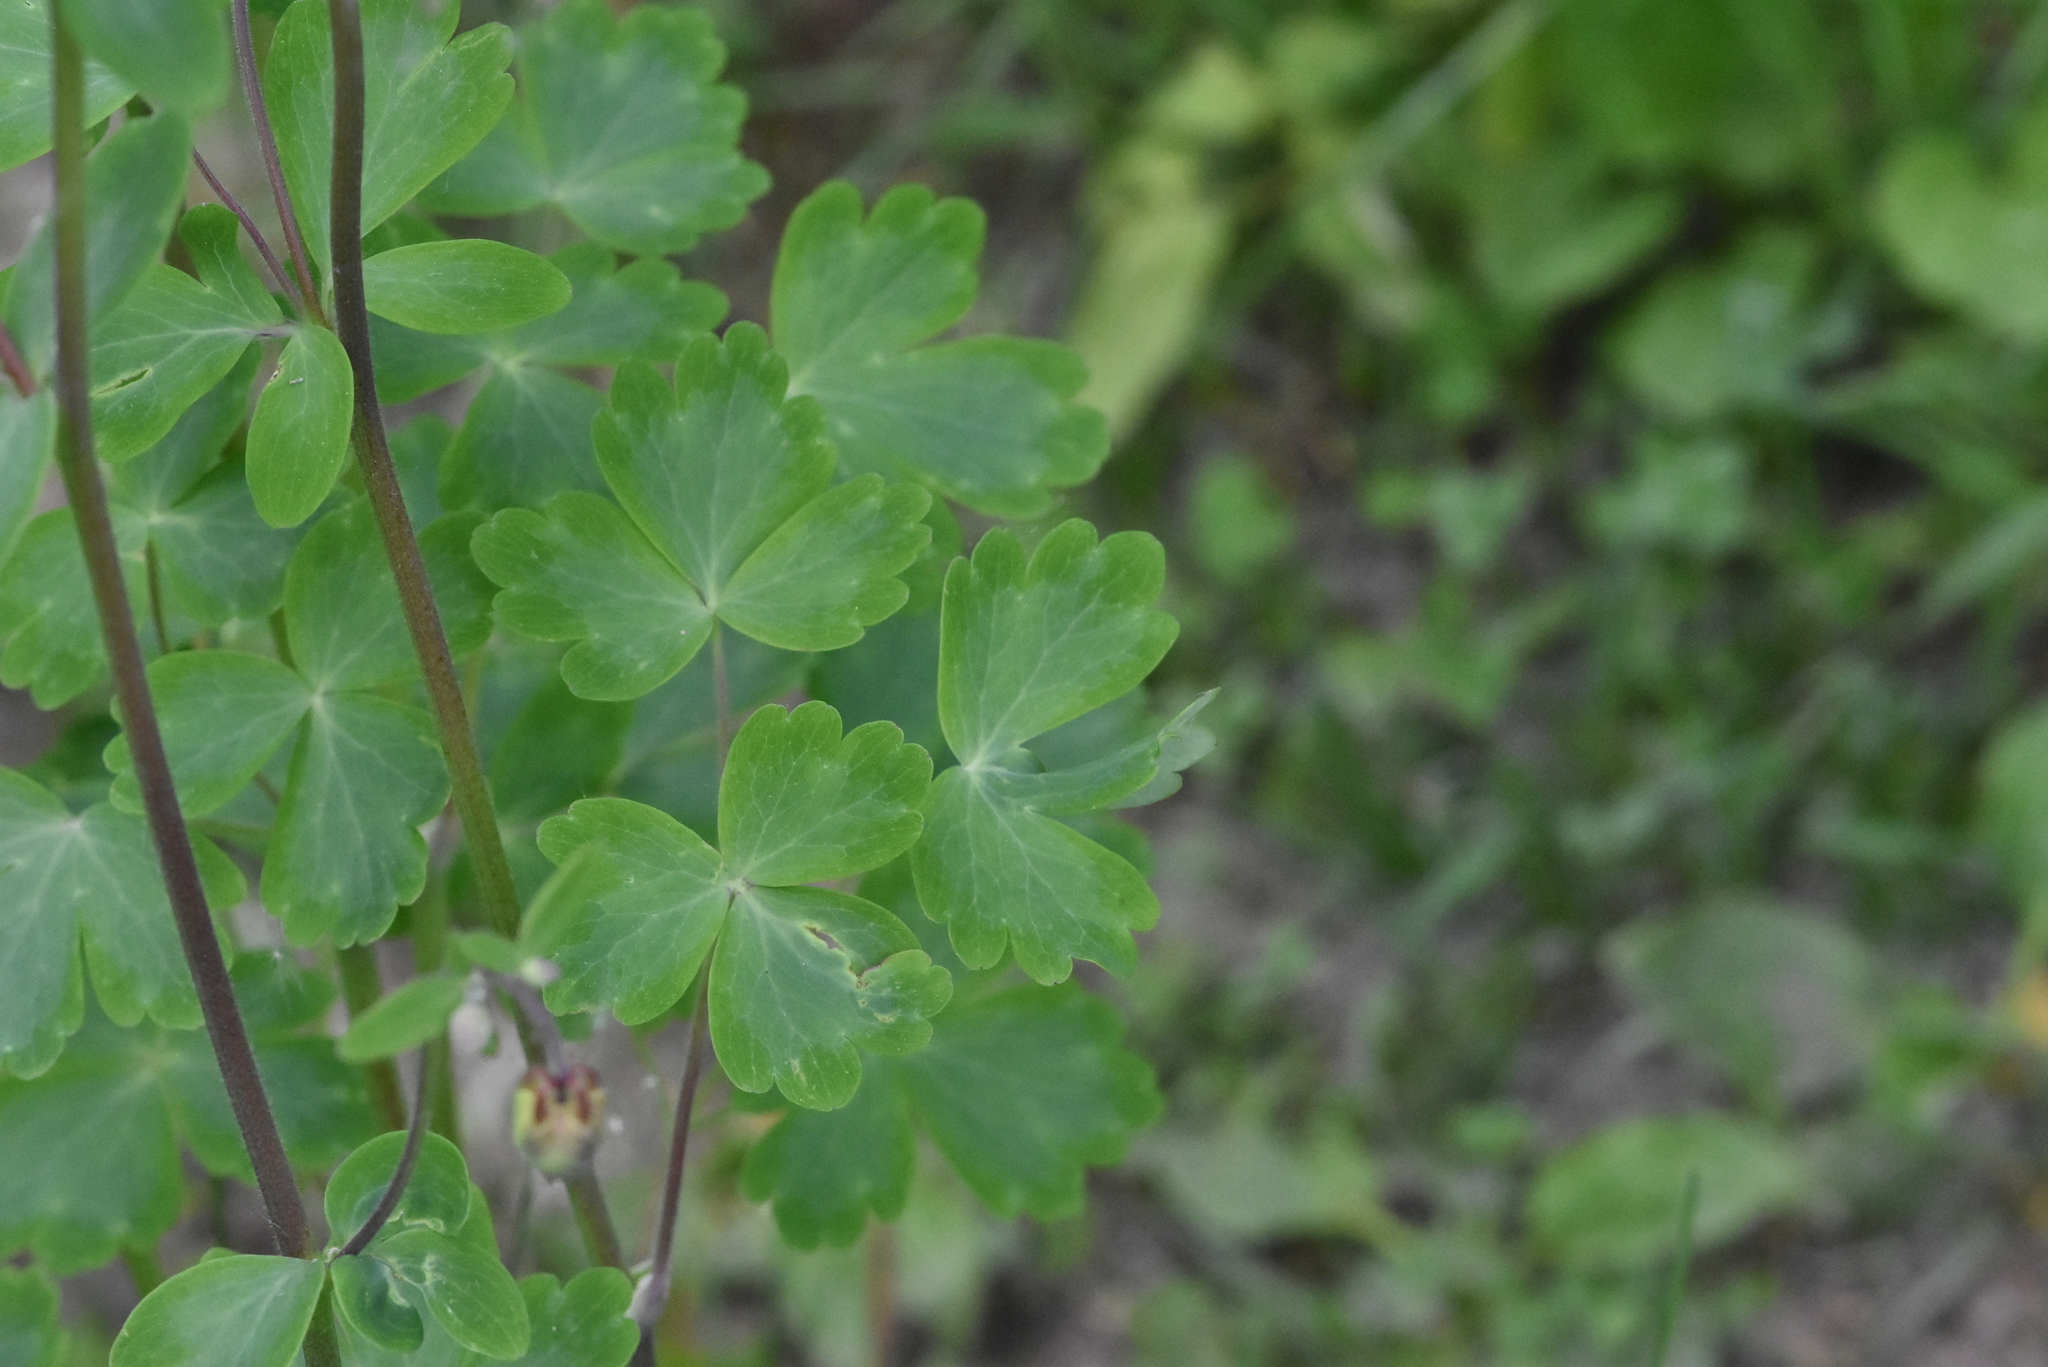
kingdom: Plantae
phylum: Tracheophyta
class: Magnoliopsida
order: Ranunculales
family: Ranunculaceae
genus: Aquilegia
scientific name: Aquilegia vulgaris
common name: Columbine
